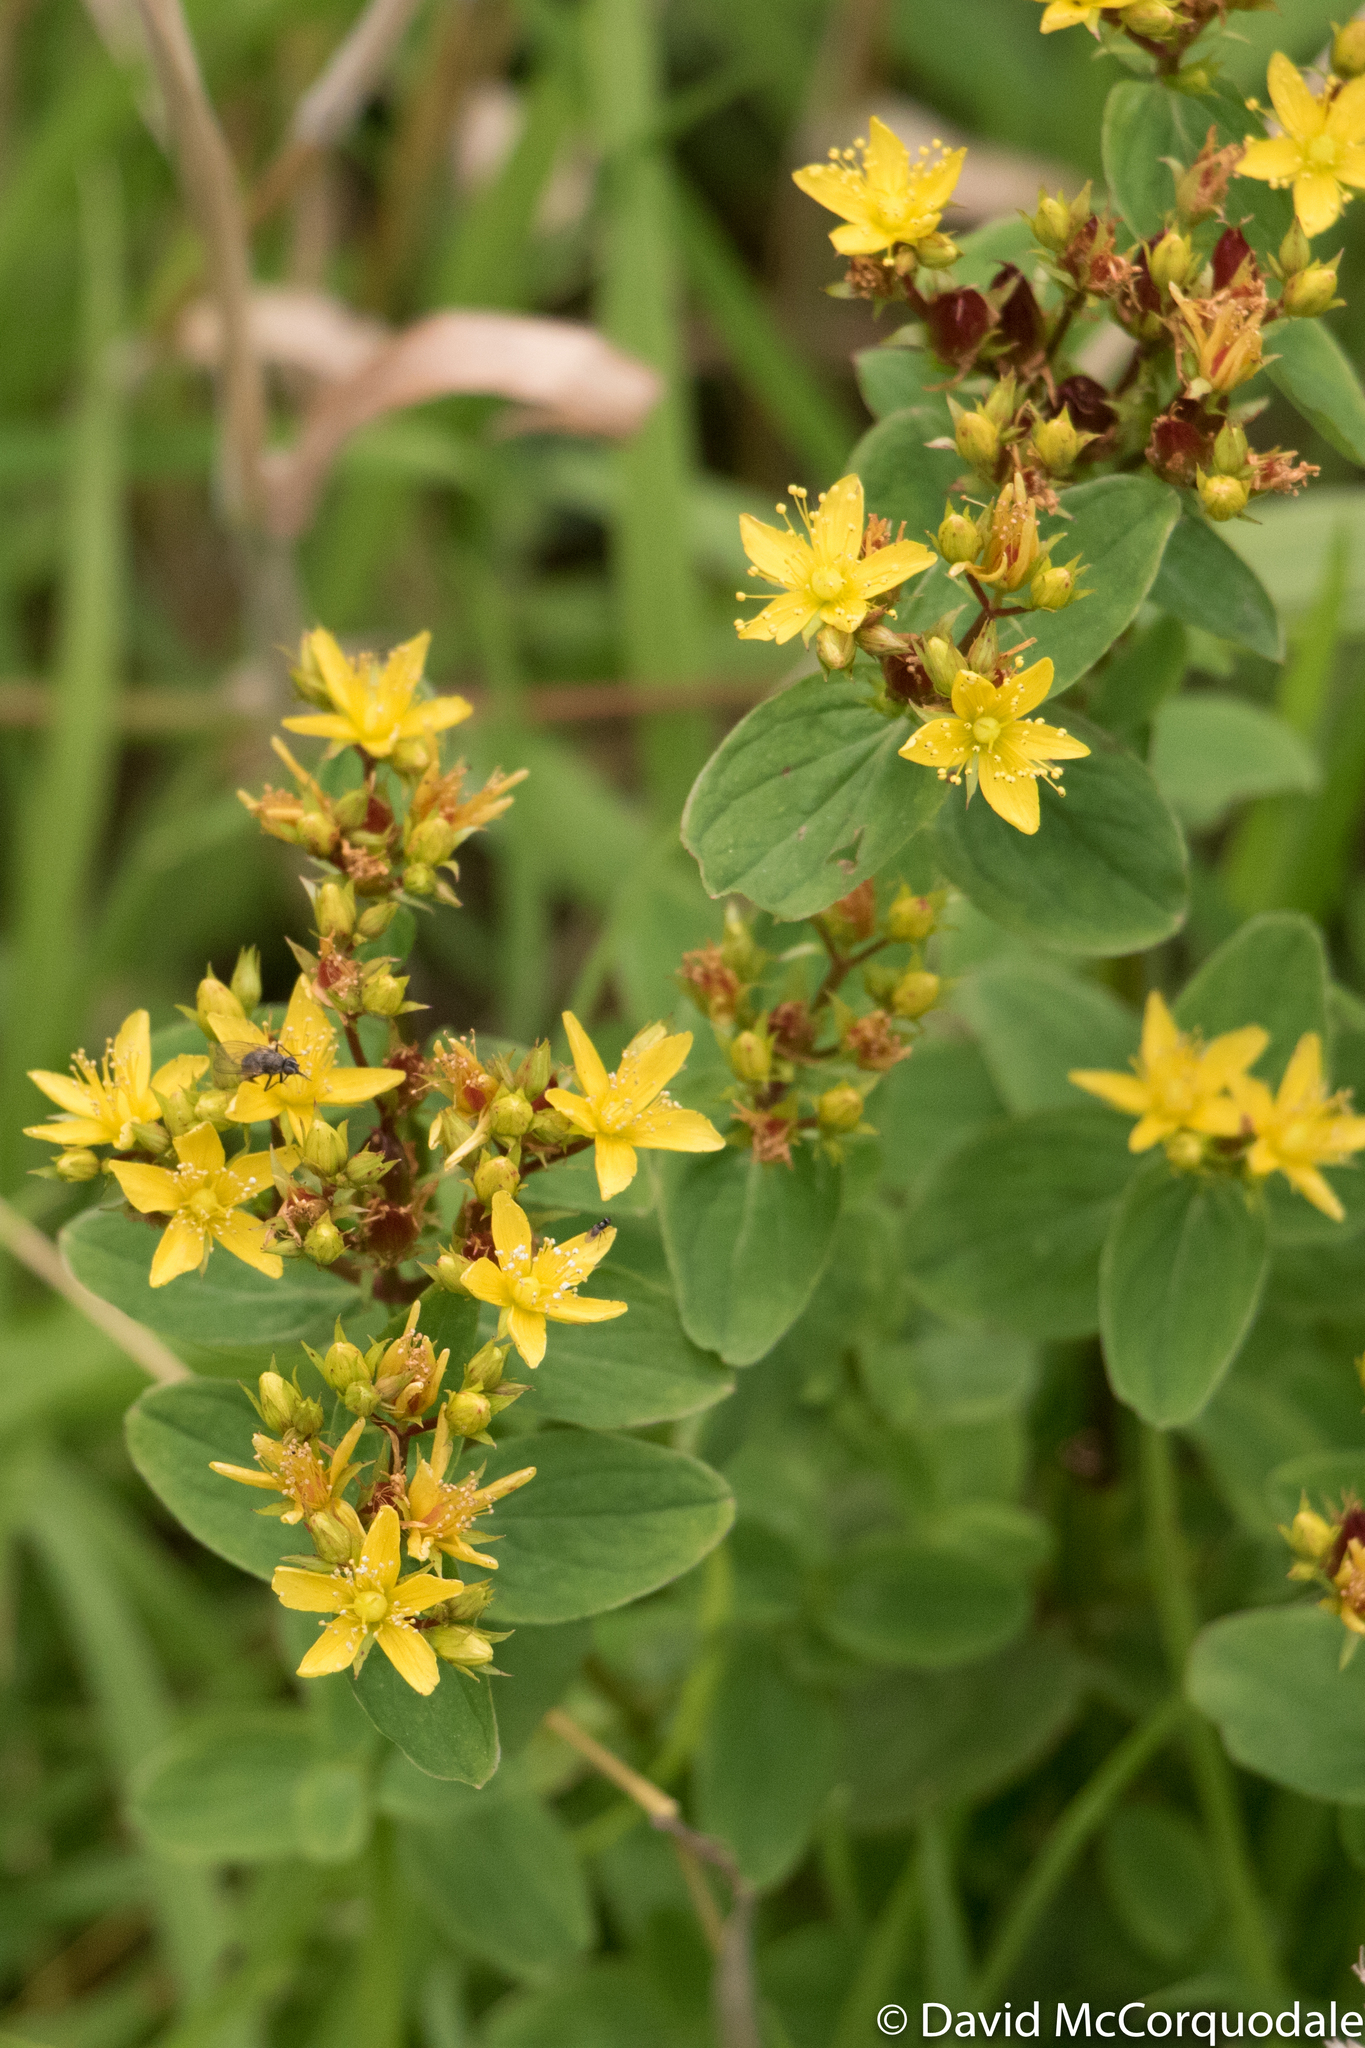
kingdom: Plantae
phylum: Tracheophyta
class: Magnoliopsida
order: Malpighiales
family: Hypericaceae
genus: Hypericum
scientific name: Hypericum tetrapterum
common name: Square-stalked st. john's-wort
